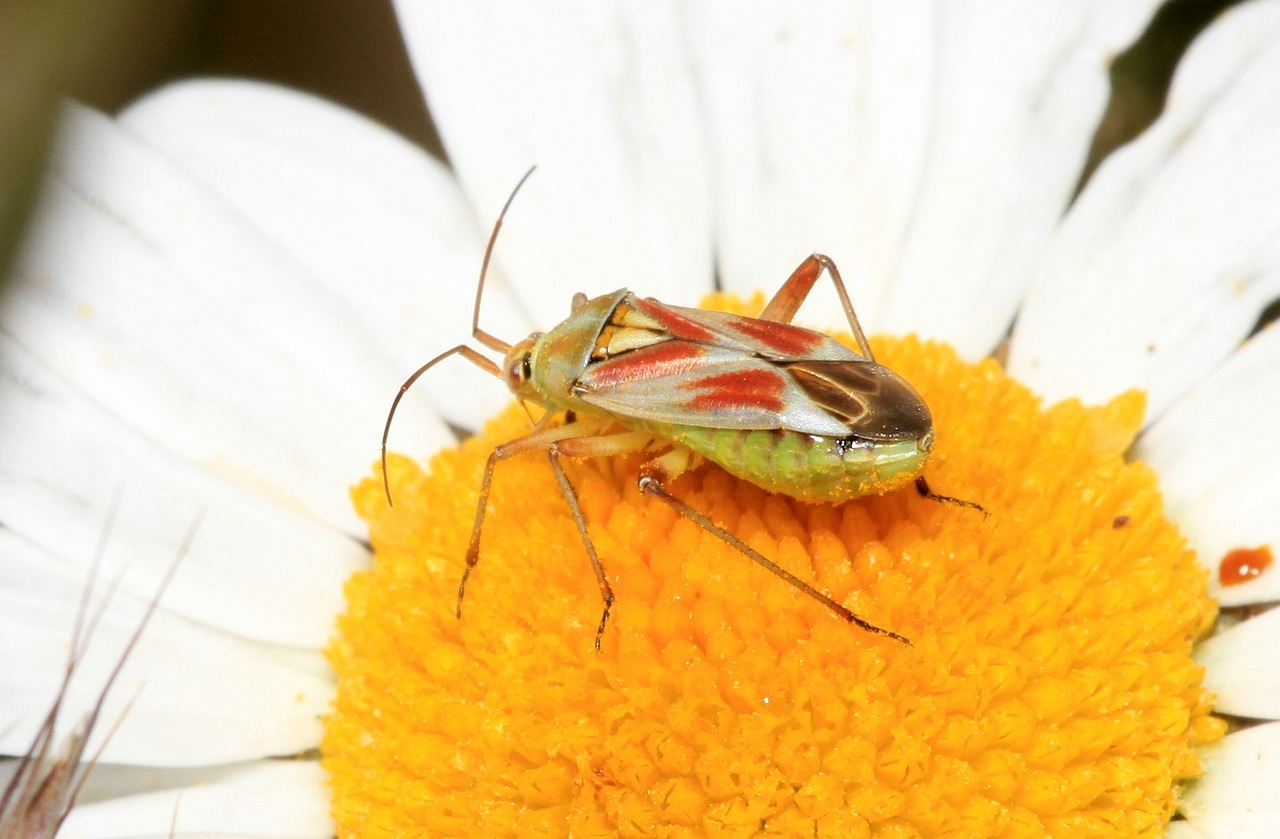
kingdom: Animalia
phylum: Arthropoda
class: Insecta
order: Hemiptera
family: Miridae
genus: Calocoris
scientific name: Calocoris roseomaculatus
